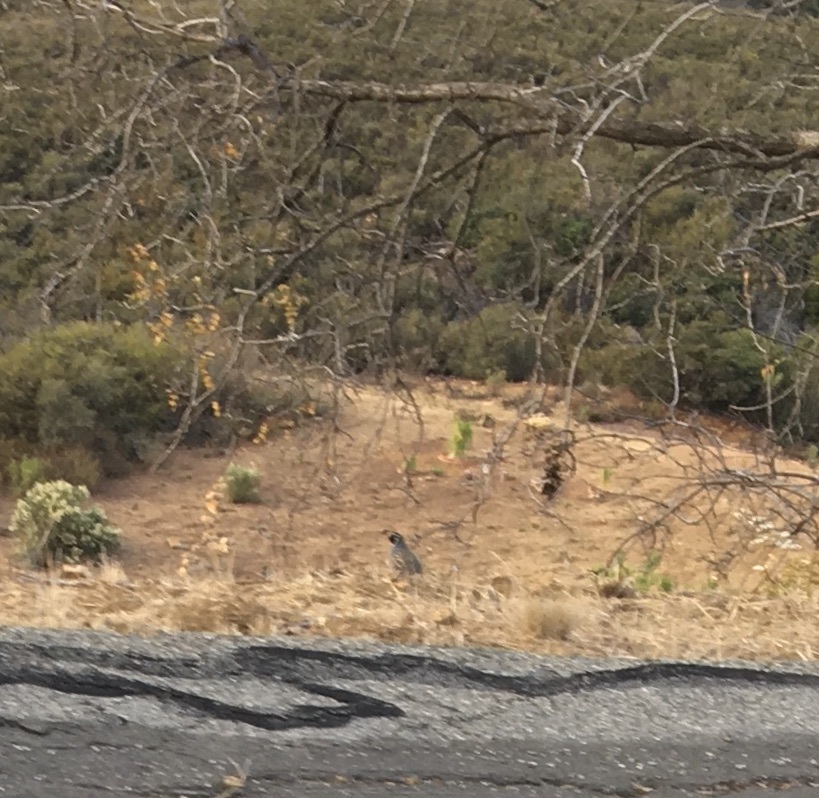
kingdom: Animalia
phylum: Chordata
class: Aves
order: Galliformes
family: Odontophoridae
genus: Callipepla
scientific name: Callipepla californica
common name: California quail
